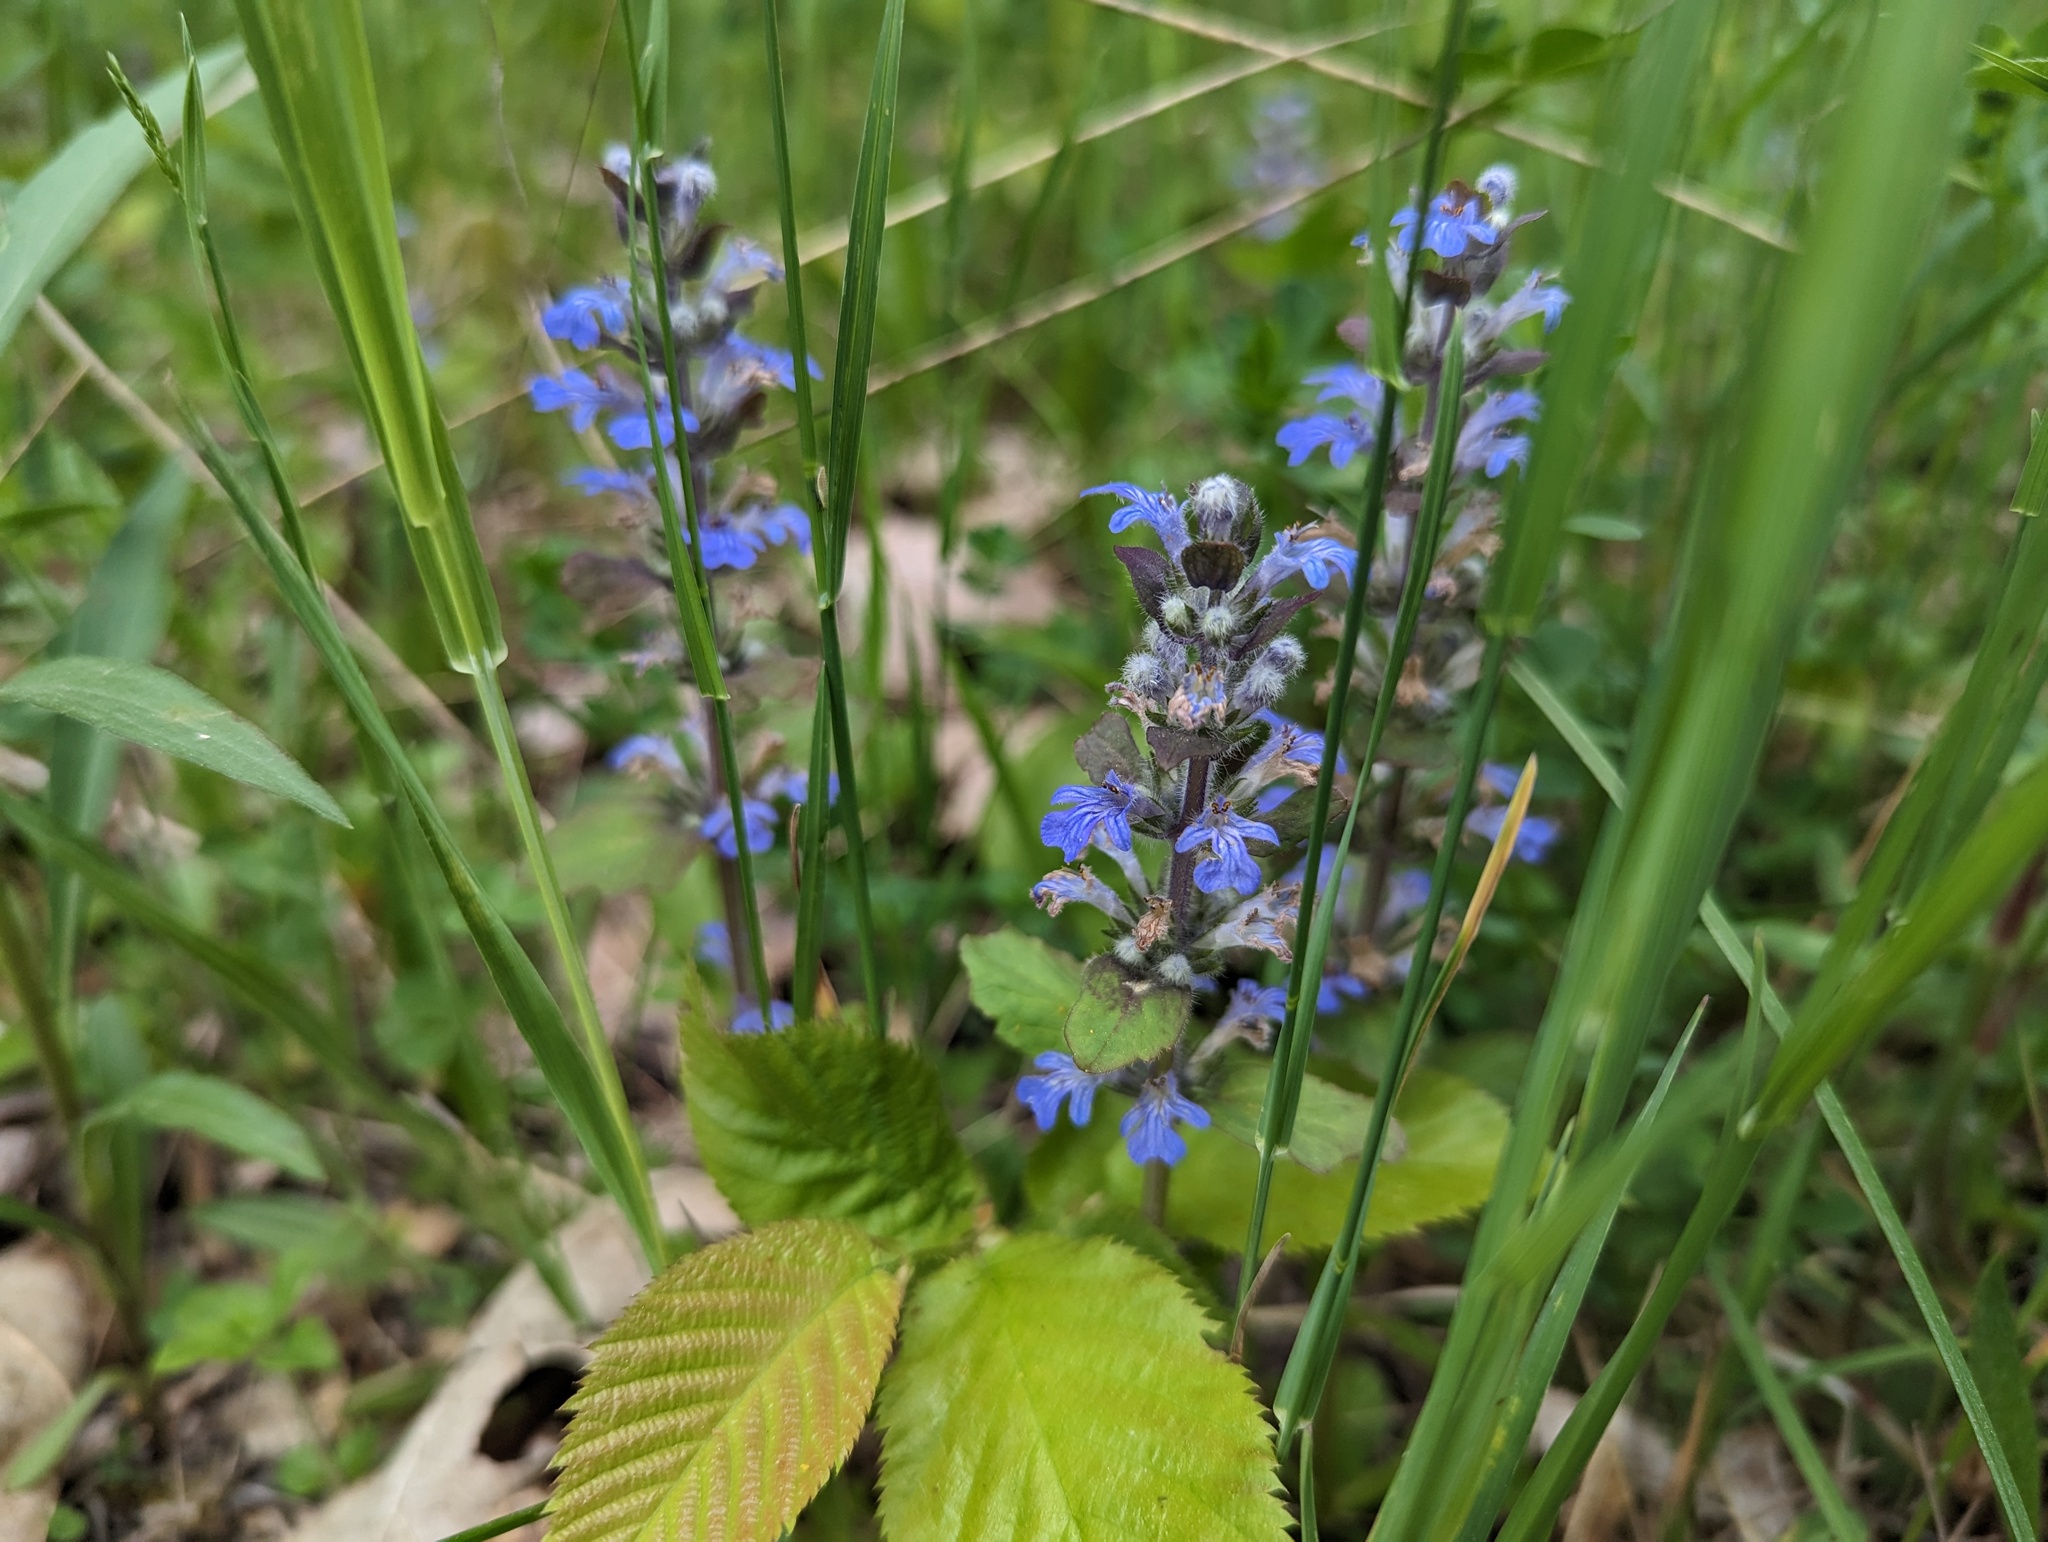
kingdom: Plantae
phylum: Tracheophyta
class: Magnoliopsida
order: Lamiales
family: Lamiaceae
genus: Ajuga
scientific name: Ajuga reptans
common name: Bugle
